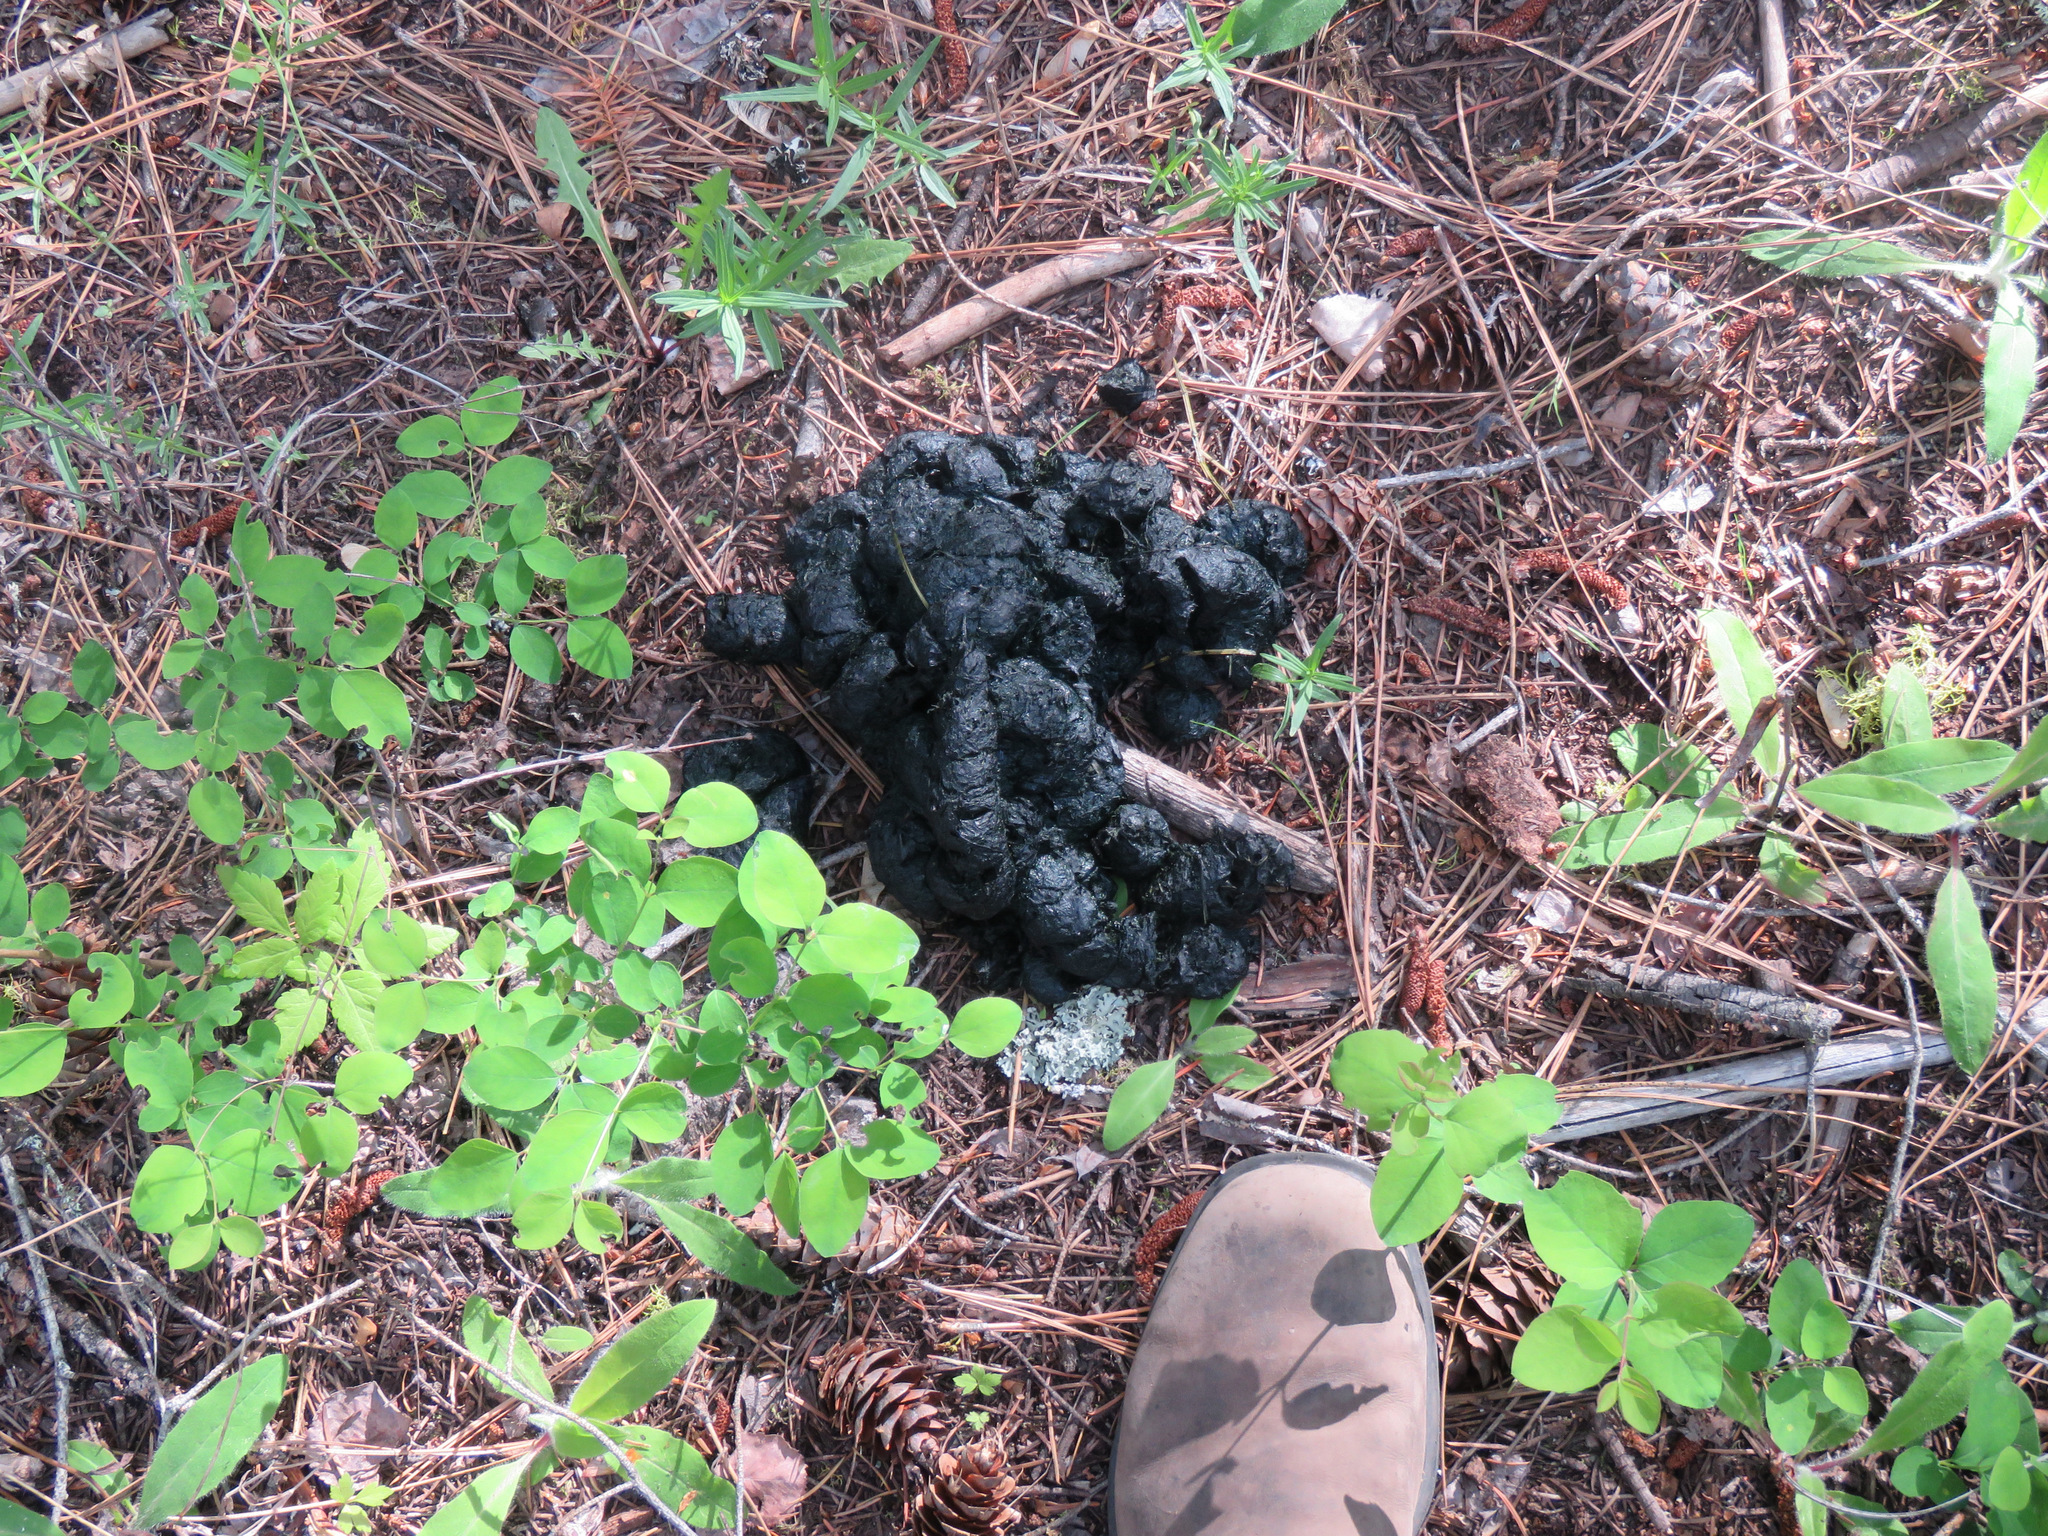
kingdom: Animalia
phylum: Chordata
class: Mammalia
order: Carnivora
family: Ursidae
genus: Ursus
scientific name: Ursus americanus
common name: American black bear
